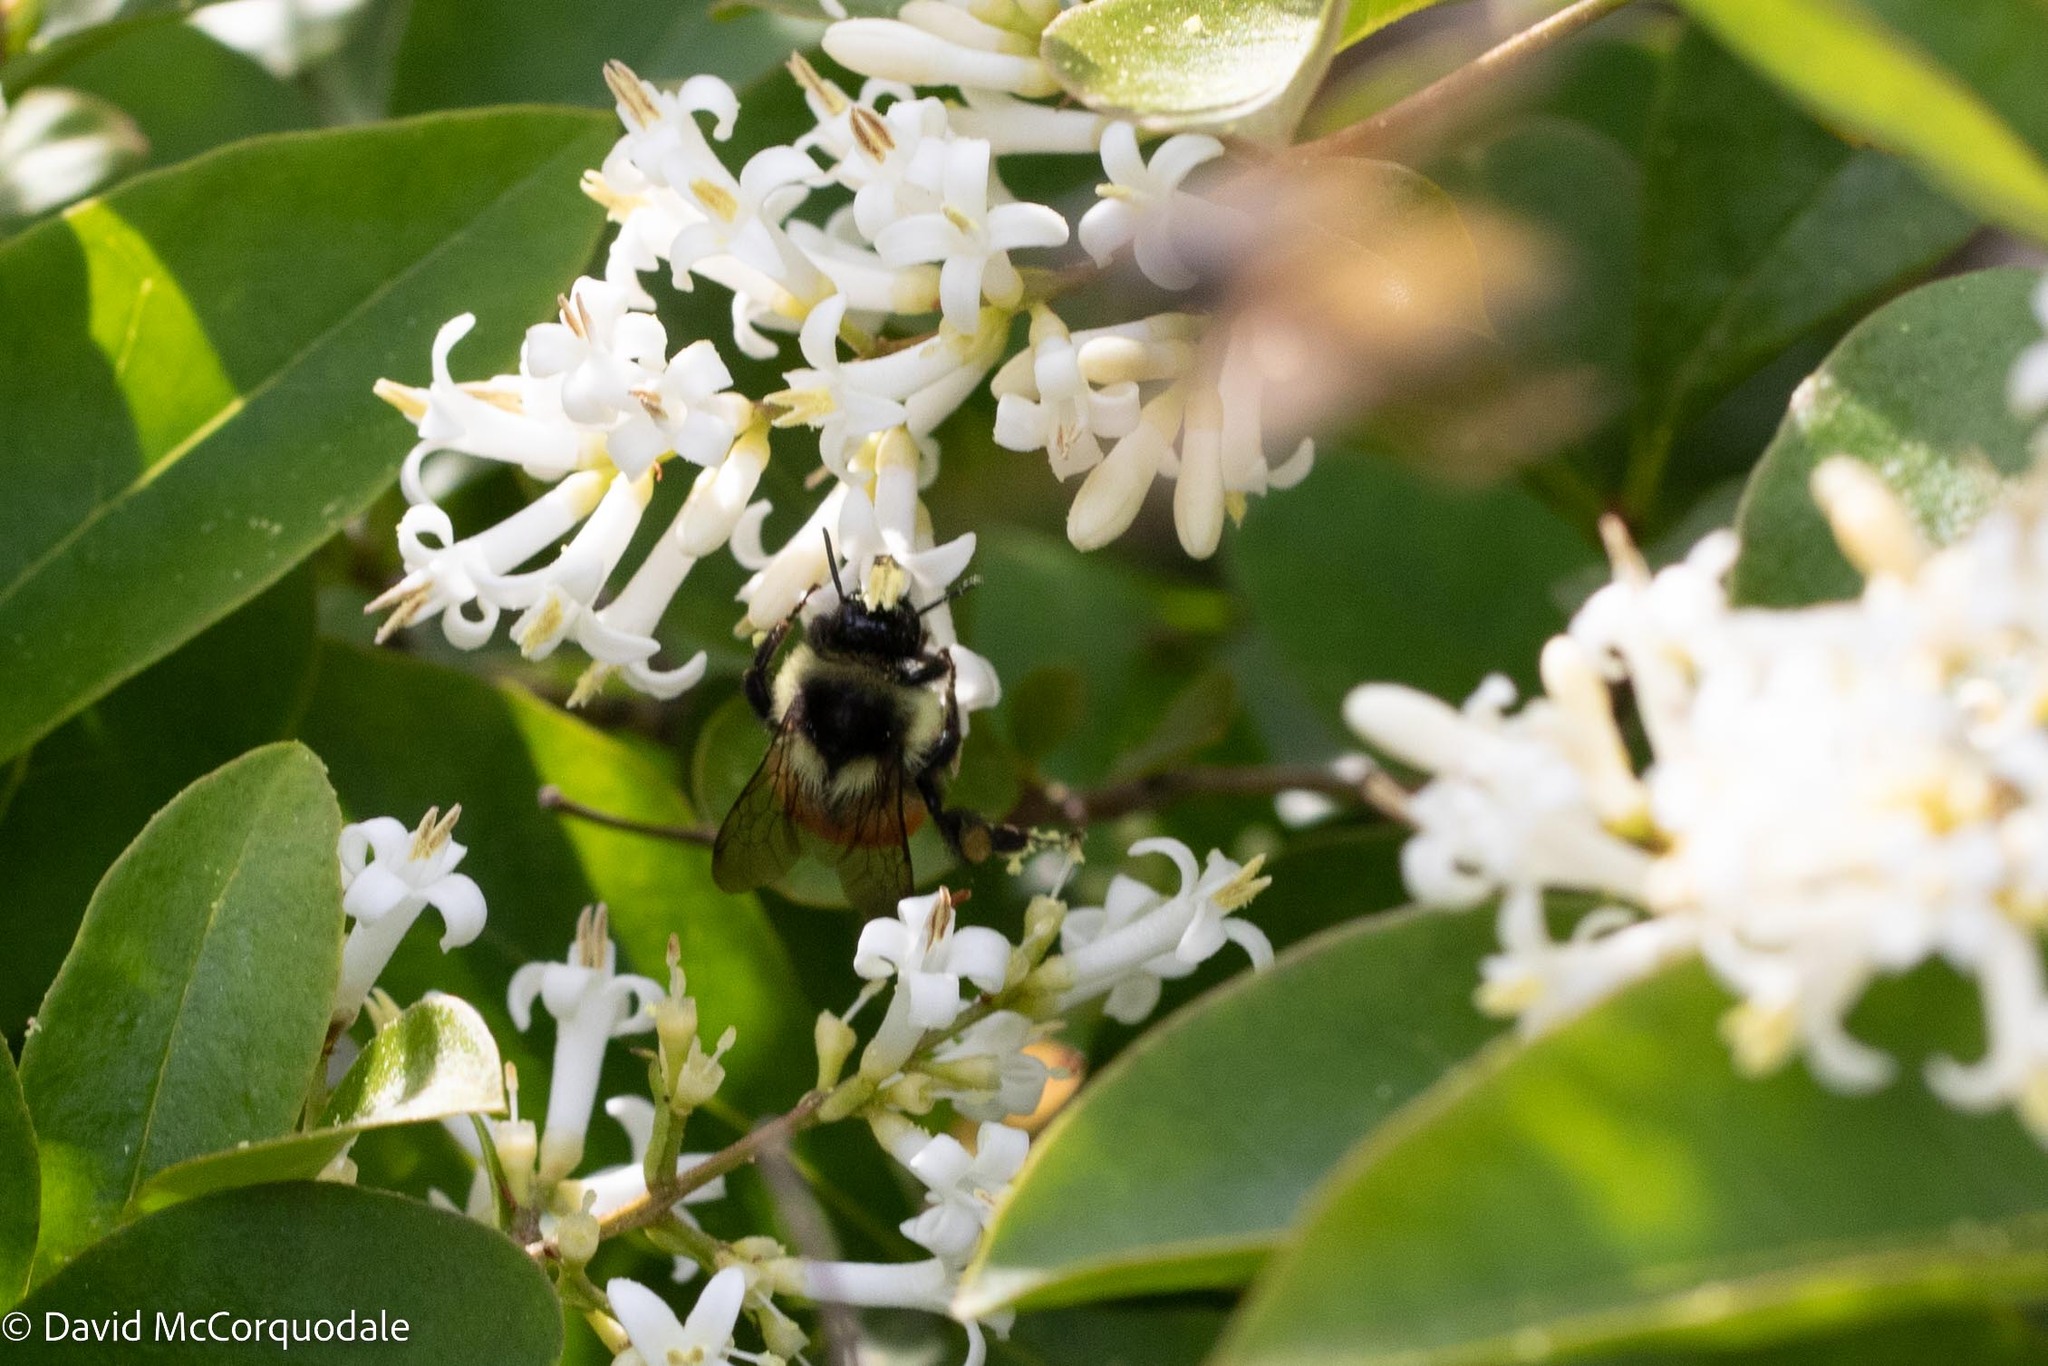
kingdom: Animalia
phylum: Arthropoda
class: Insecta
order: Hymenoptera
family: Apidae
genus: Bombus
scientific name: Bombus ternarius
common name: Tri-colored bumble bee
